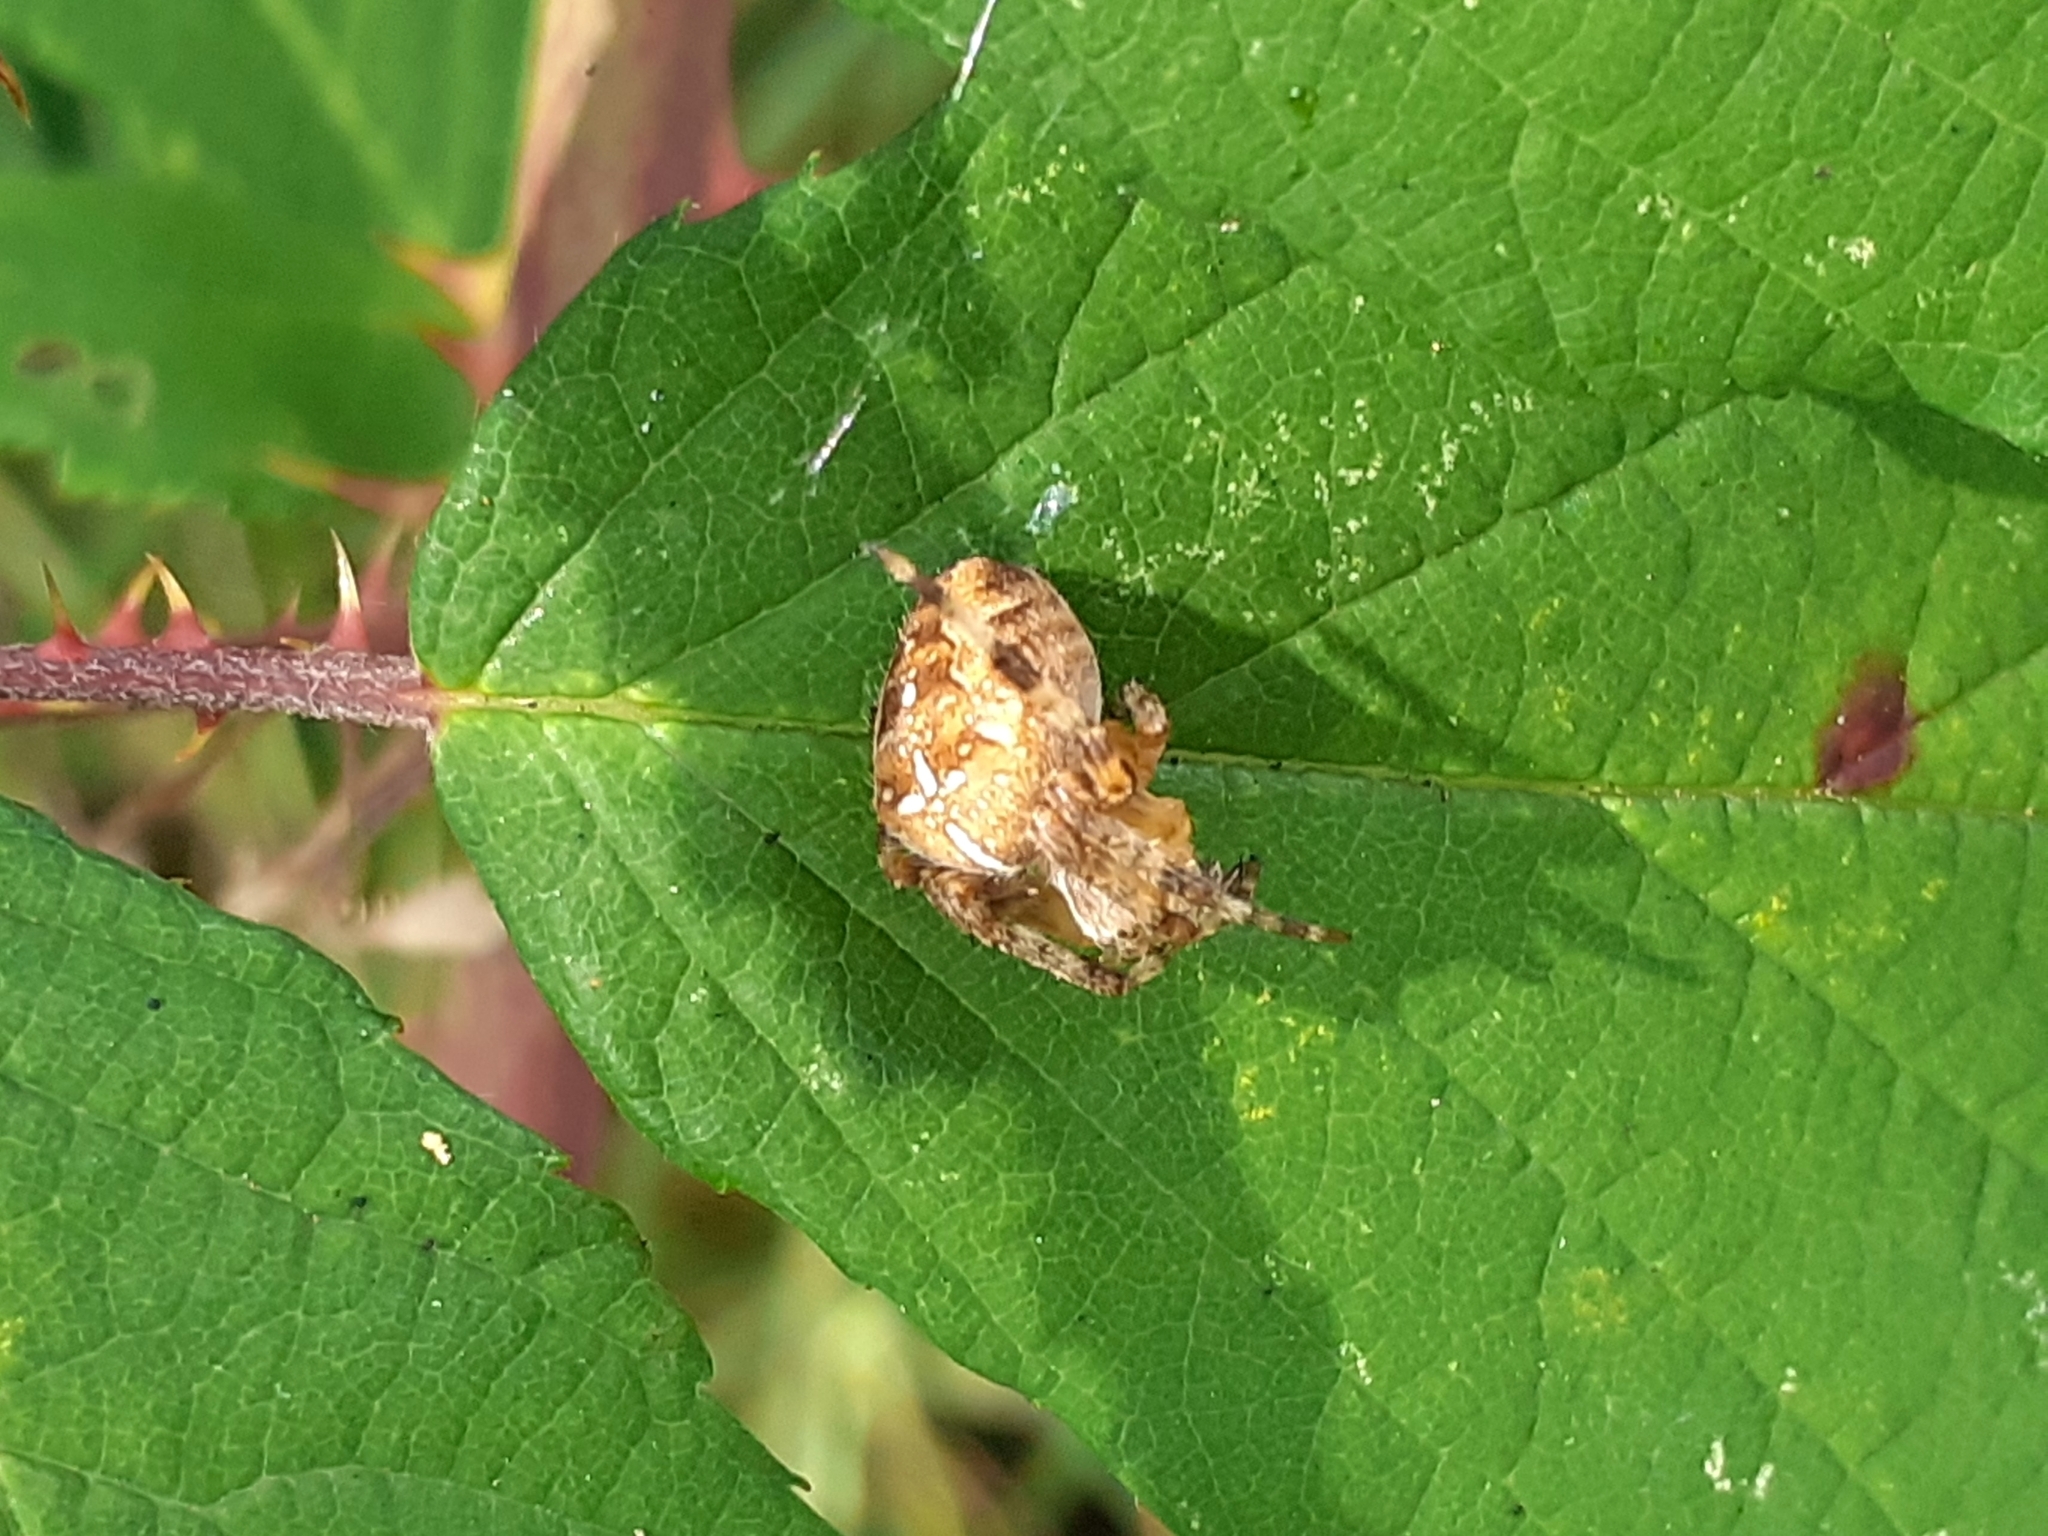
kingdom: Animalia
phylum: Arthropoda
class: Arachnida
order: Araneae
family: Araneidae
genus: Araneus
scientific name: Araneus diadematus
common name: Cross orbweaver
